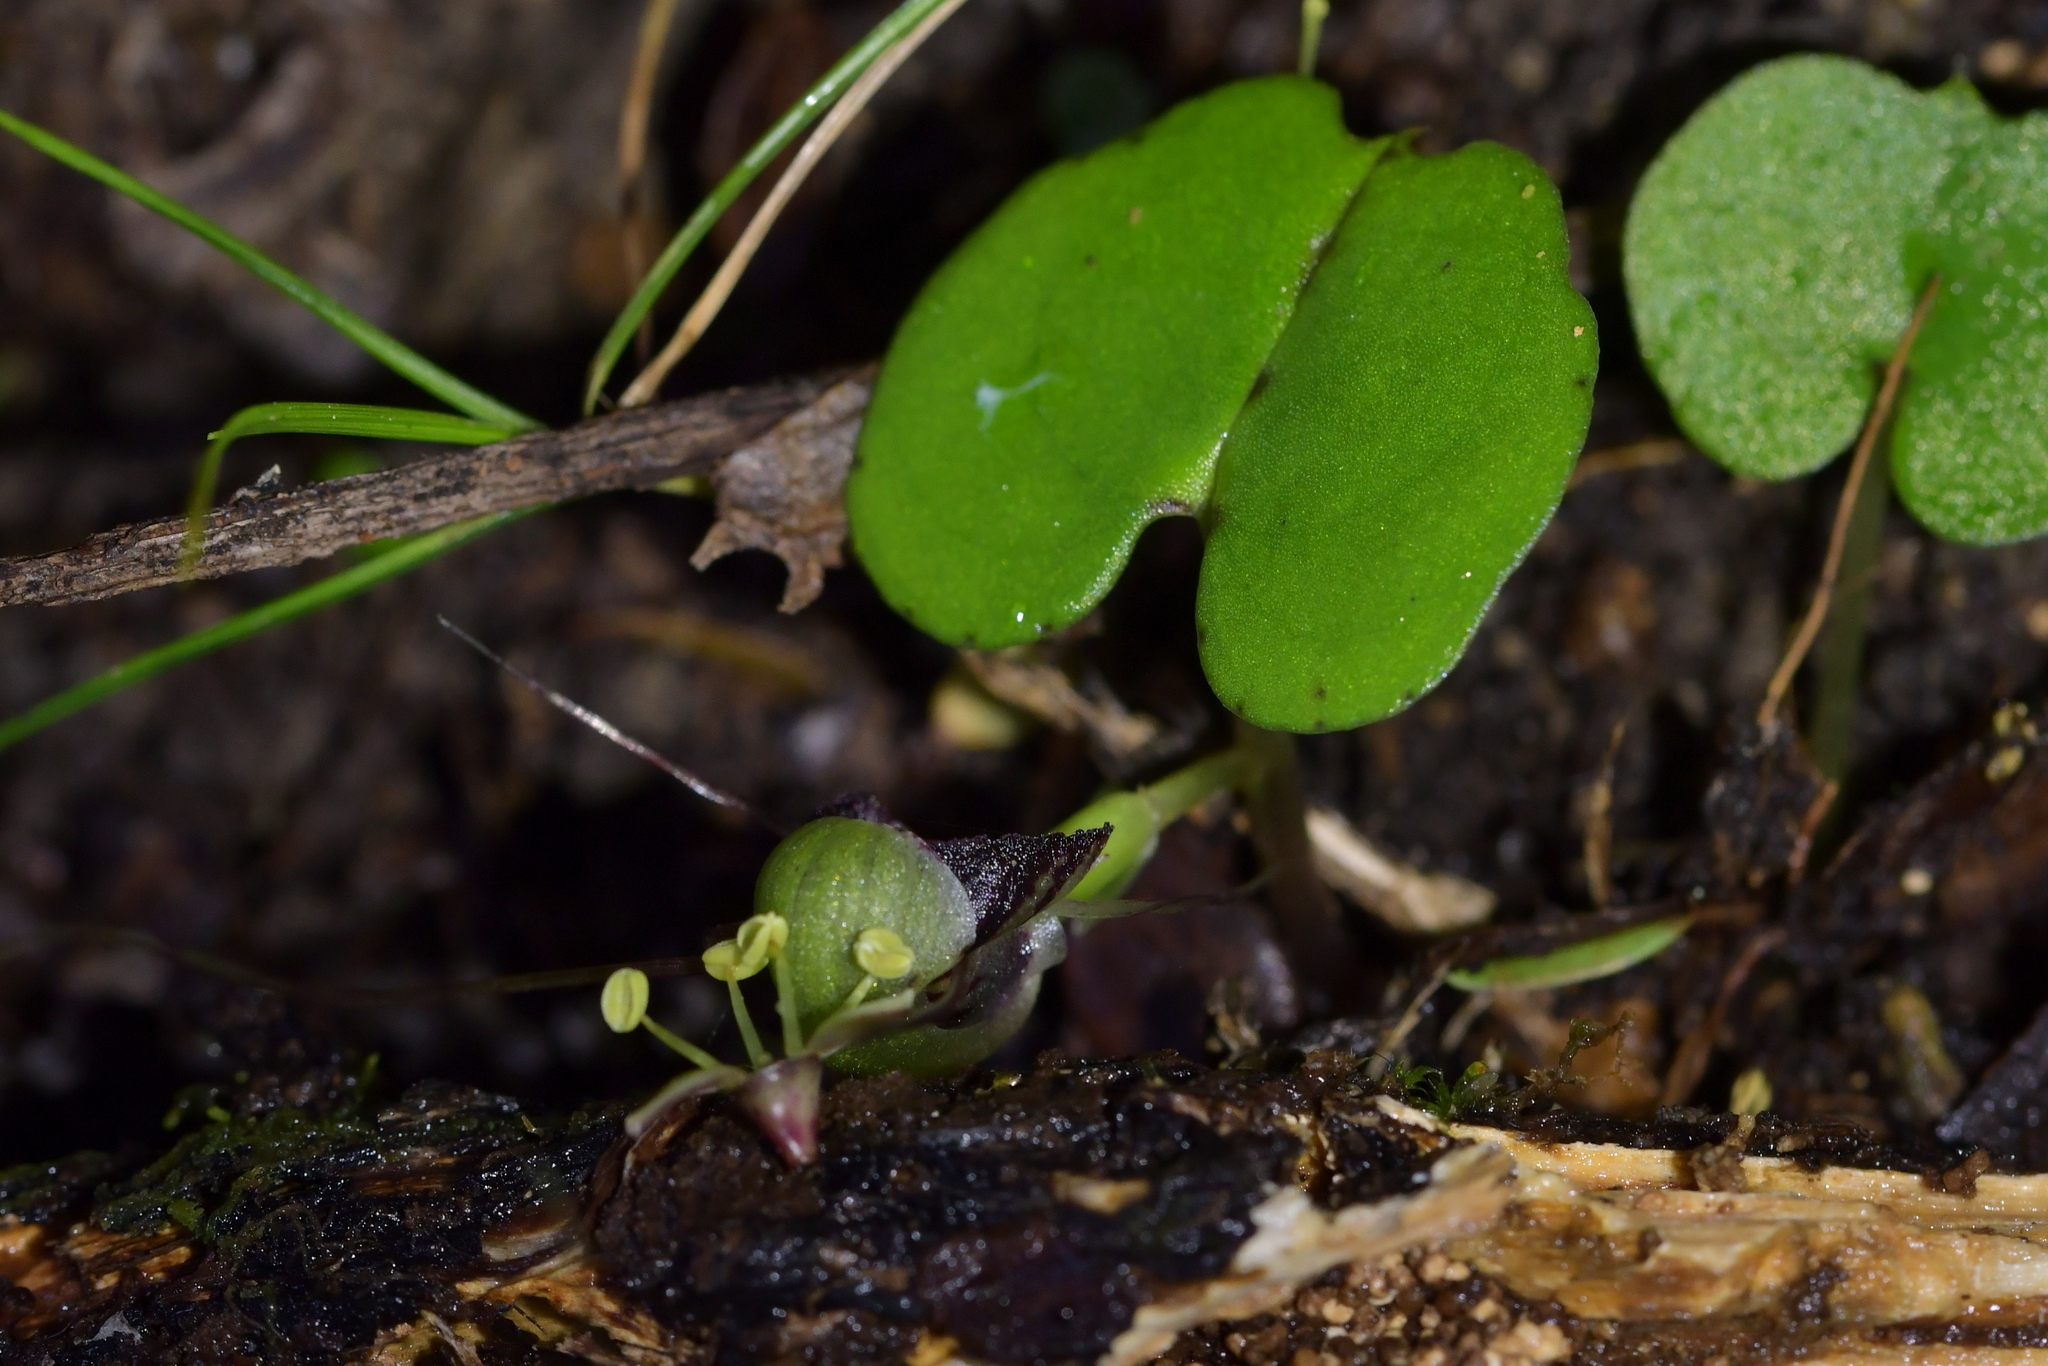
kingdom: Plantae
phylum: Tracheophyta
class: Liliopsida
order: Asparagales
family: Orchidaceae
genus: Corybas
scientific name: Corybas vitreus
